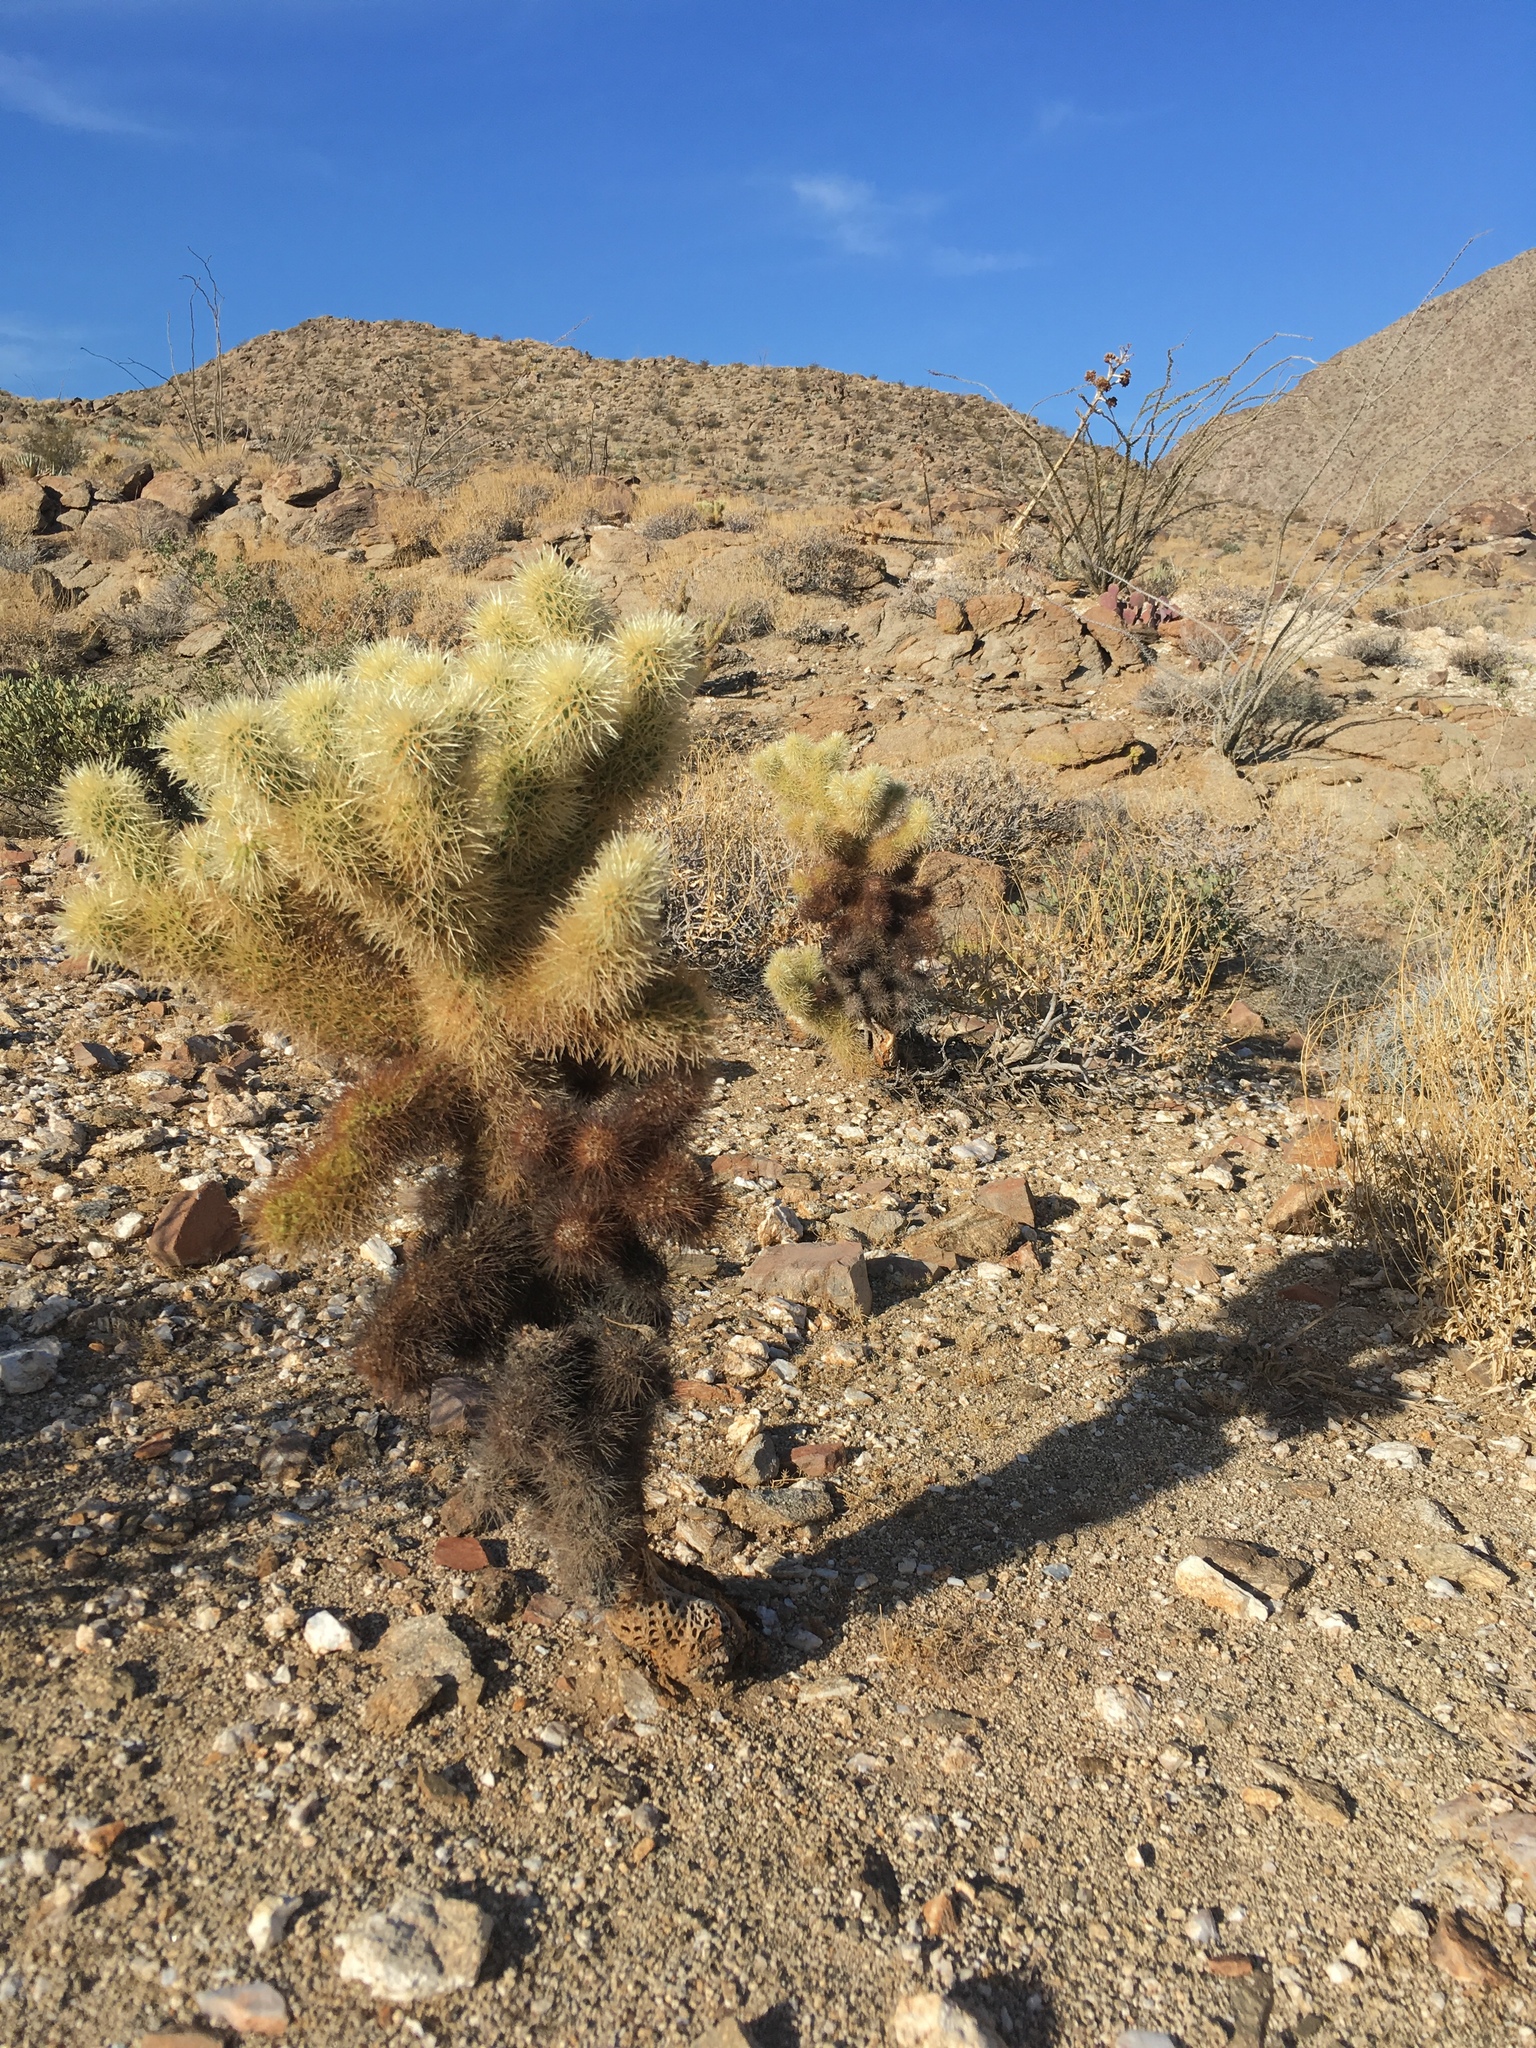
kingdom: Plantae
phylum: Tracheophyta
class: Magnoliopsida
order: Caryophyllales
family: Cactaceae
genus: Cylindropuntia
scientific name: Cylindropuntia fosbergii
